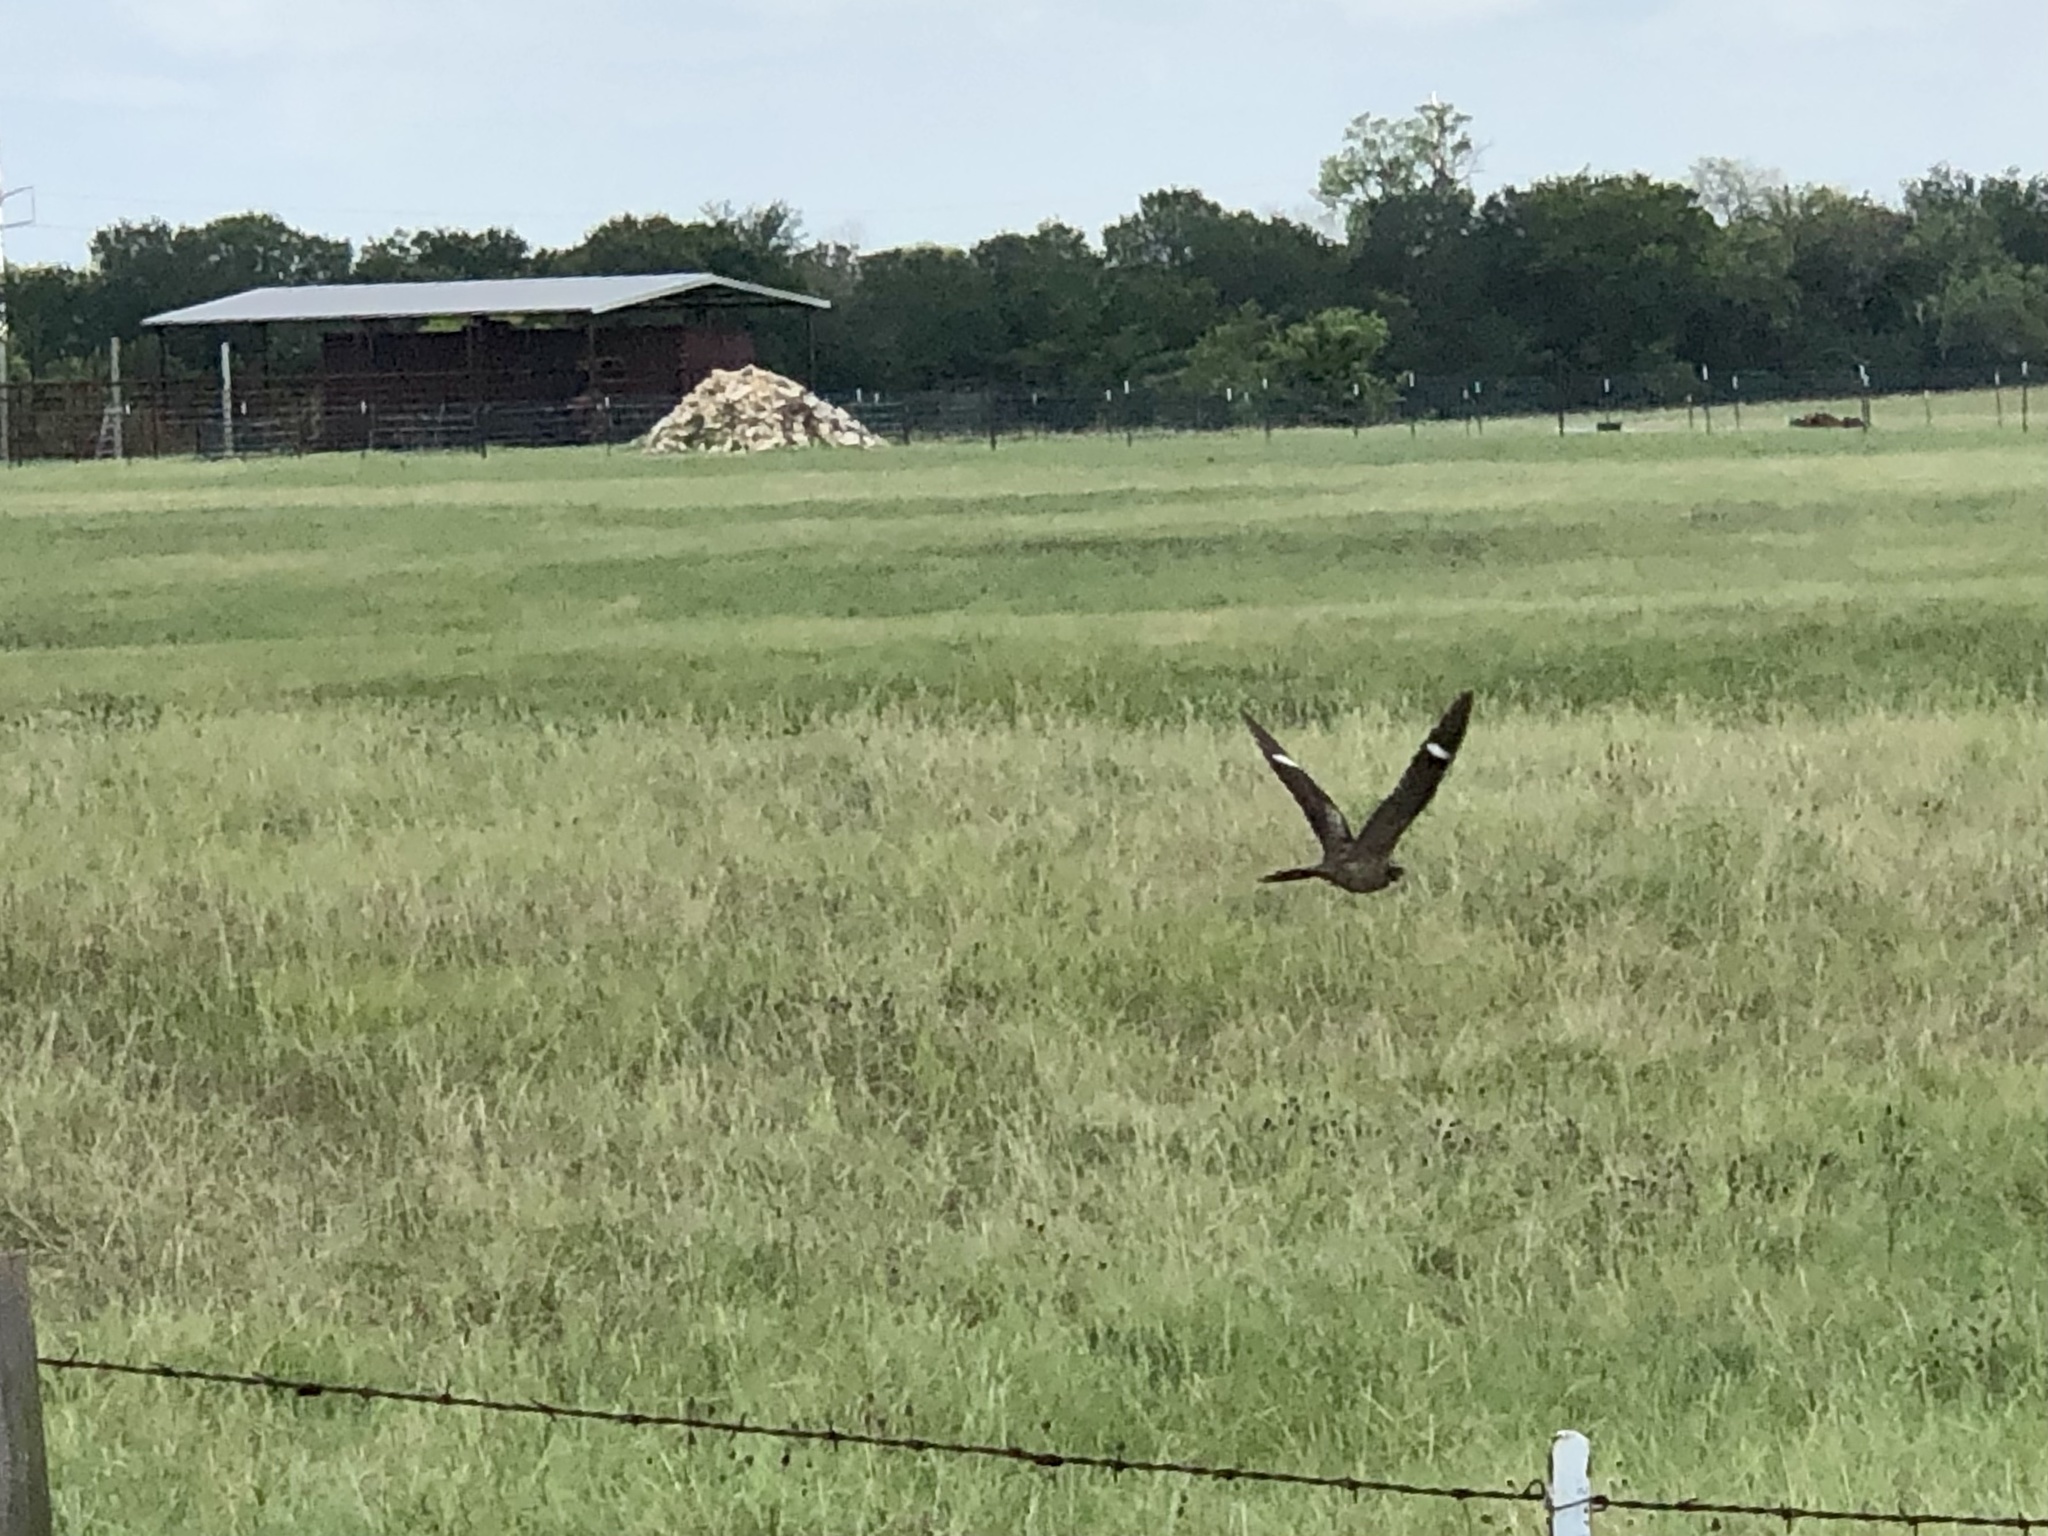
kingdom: Animalia
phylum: Chordata
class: Aves
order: Caprimulgiformes
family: Caprimulgidae
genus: Chordeiles
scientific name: Chordeiles minor
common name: Common nighthawk
